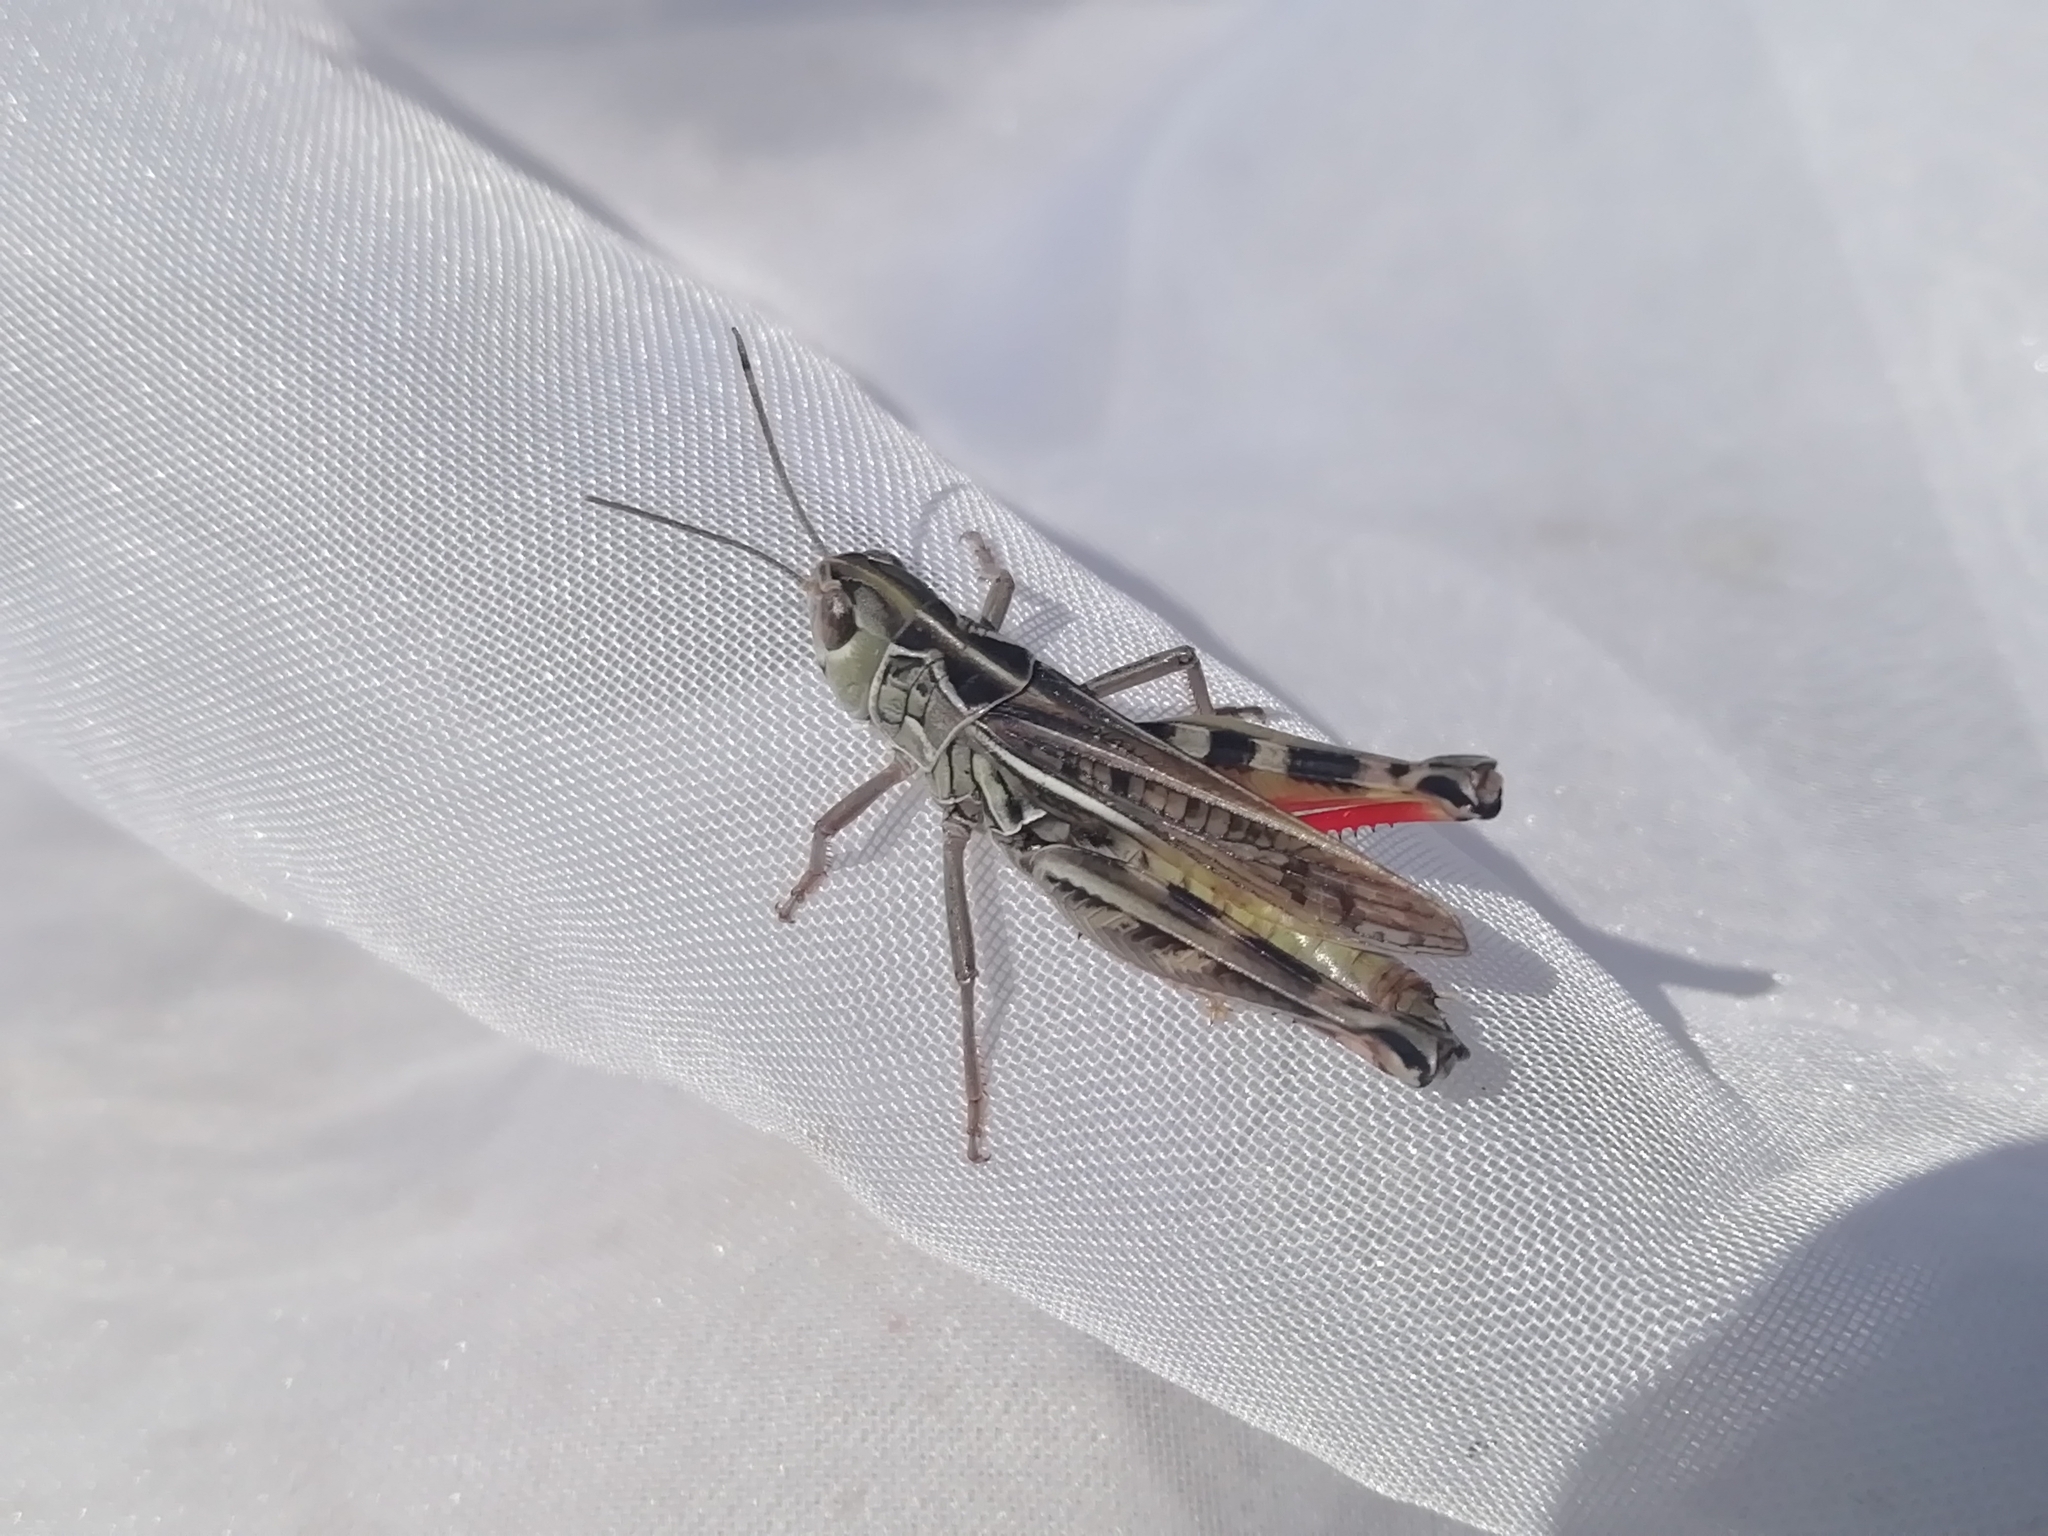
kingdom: Animalia
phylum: Arthropoda
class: Insecta
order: Orthoptera
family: Acrididae
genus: Arcyptera
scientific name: Arcyptera microptera
